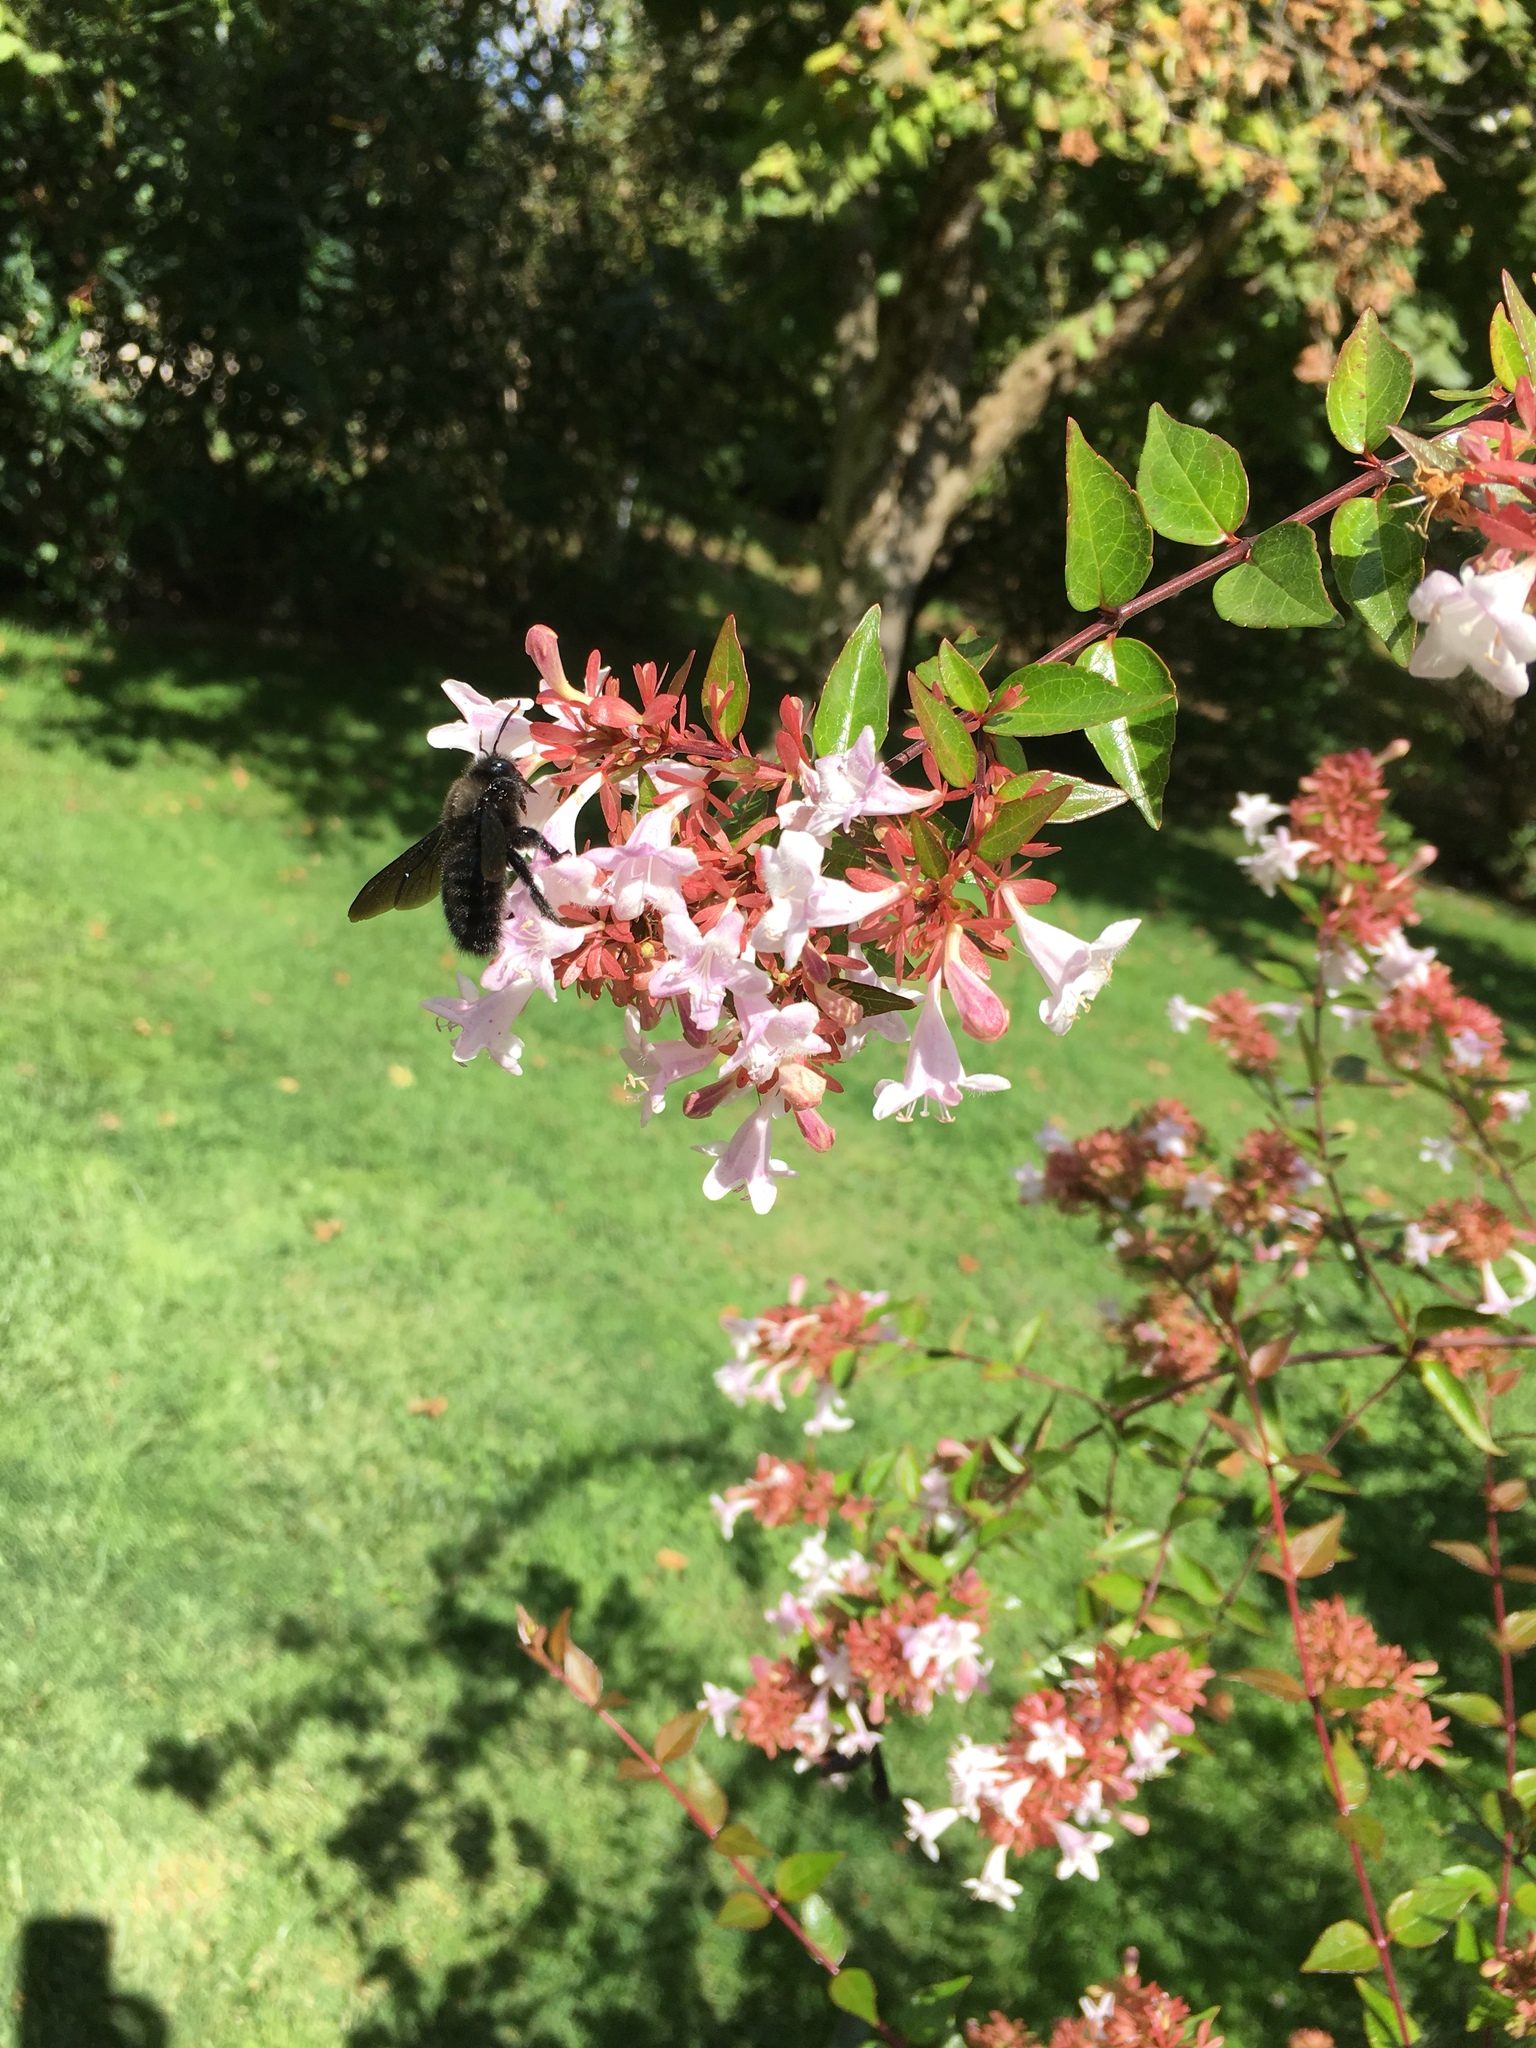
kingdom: Animalia
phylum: Arthropoda
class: Insecta
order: Hymenoptera
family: Apidae
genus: Xylocopa
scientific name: Xylocopa violacea
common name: Violet carpenter bee
